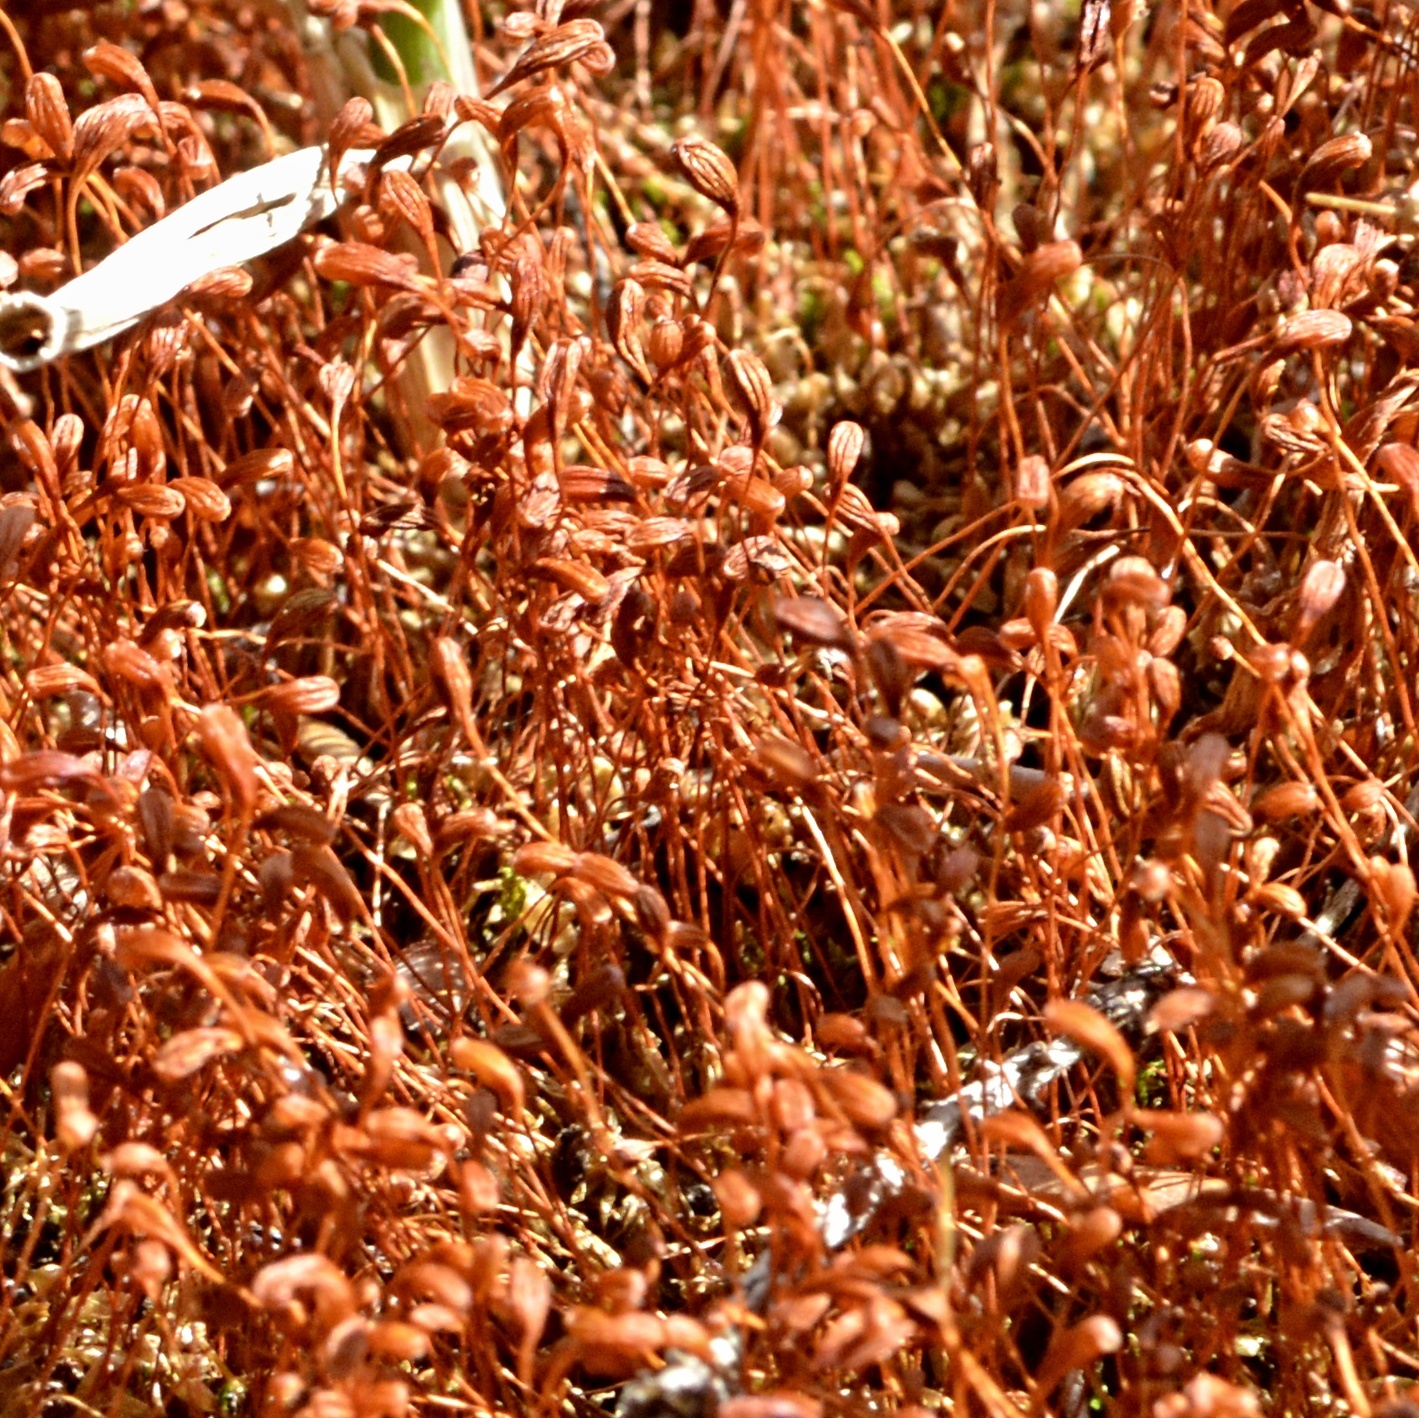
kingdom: Plantae
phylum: Bryophyta
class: Bryopsida
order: Funariales
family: Funariaceae
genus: Funaria
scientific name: Funaria hygrometrica
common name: Common cord moss
